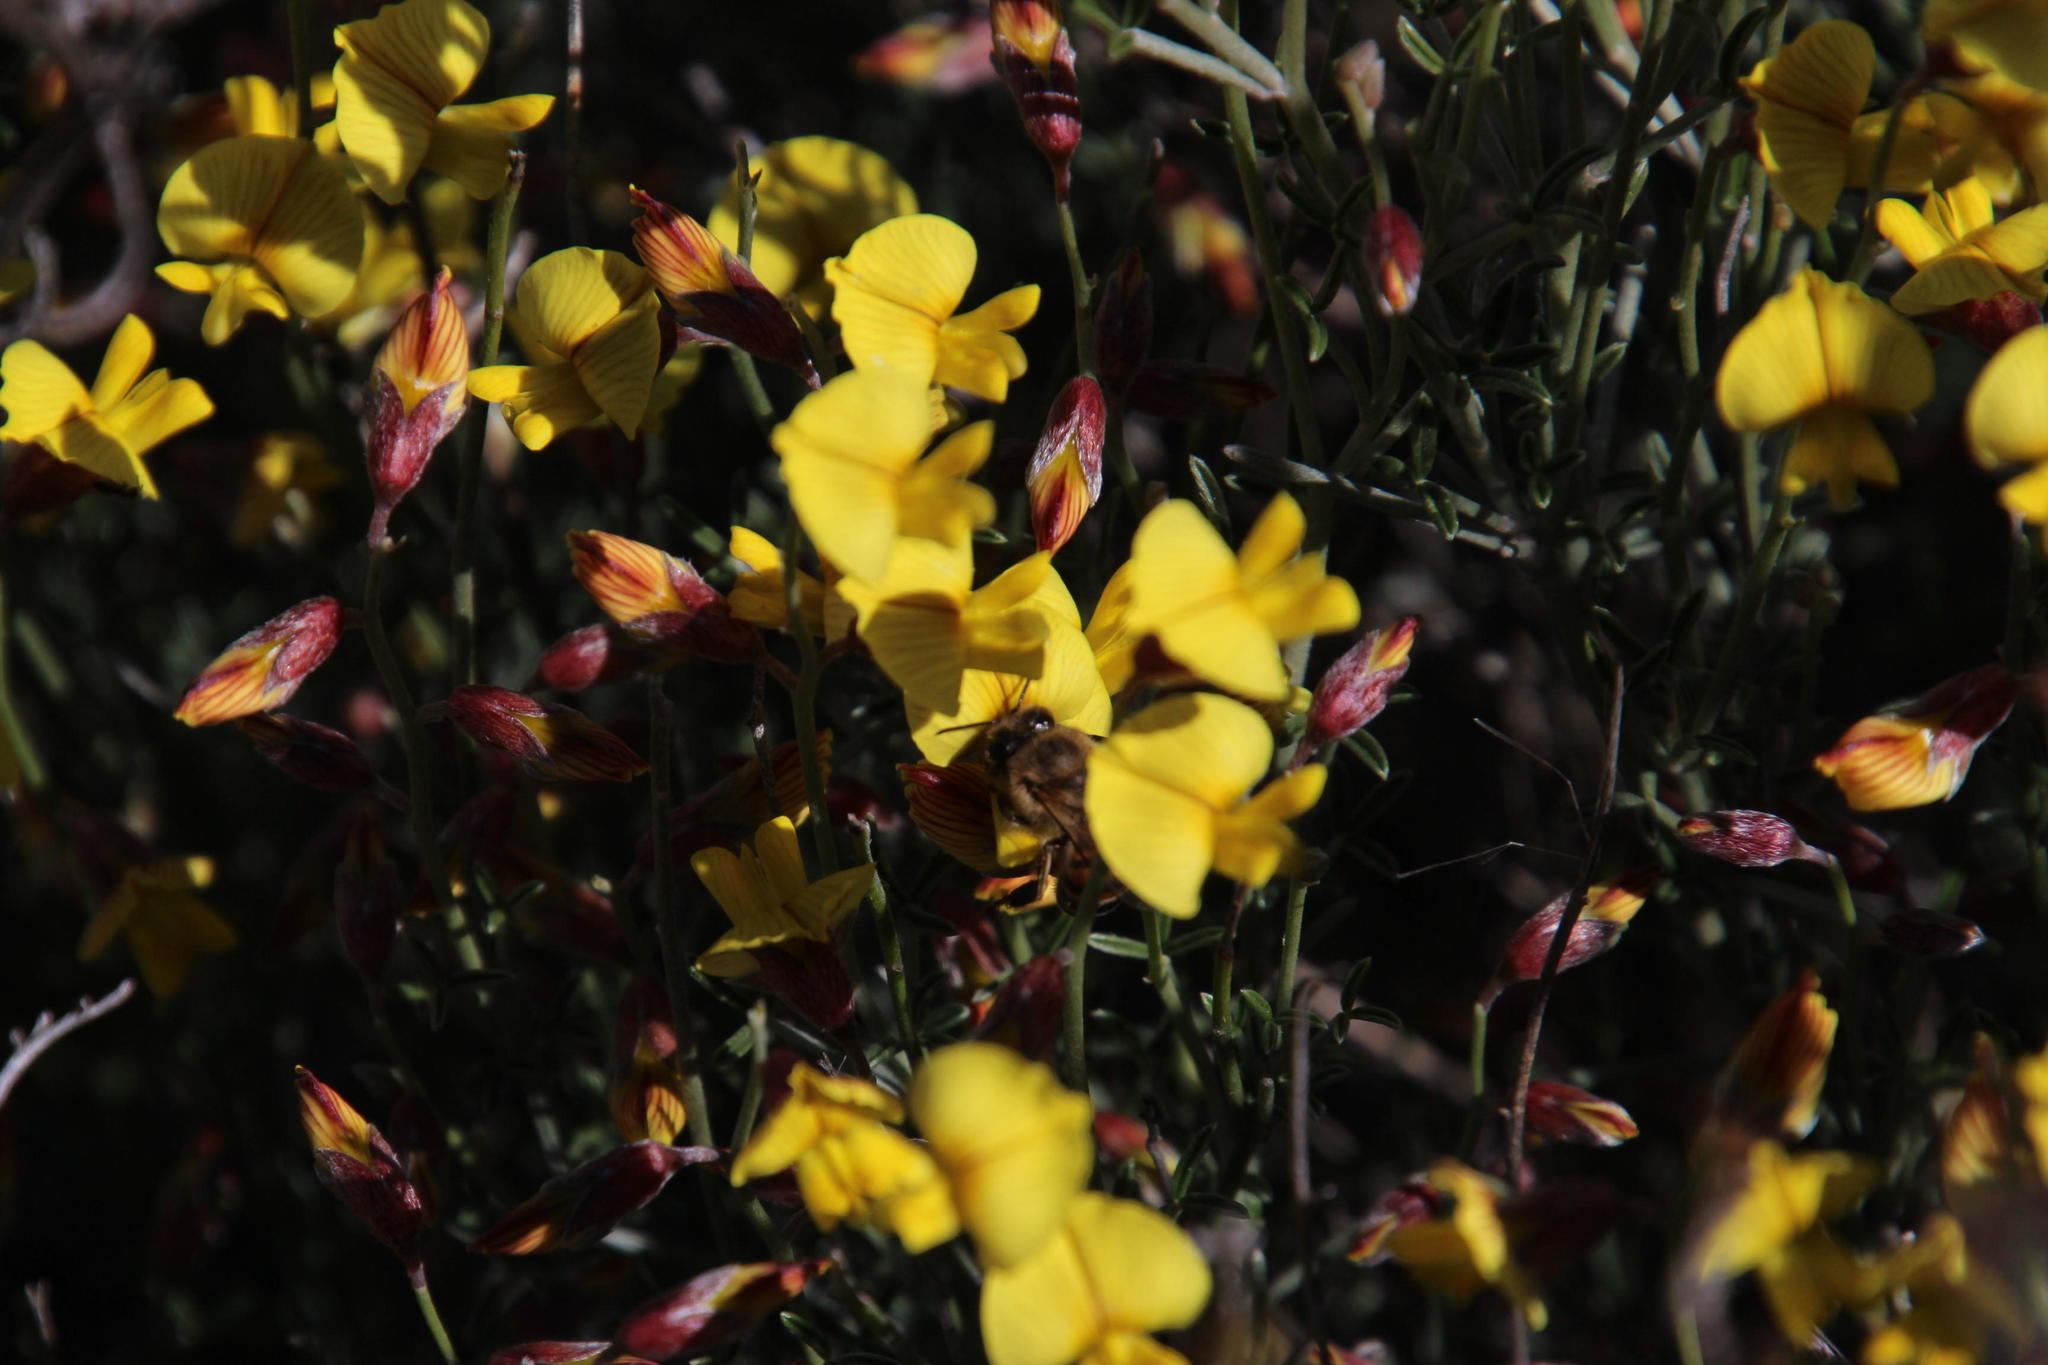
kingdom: Animalia
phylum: Arthropoda
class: Insecta
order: Hymenoptera
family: Apidae
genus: Apis
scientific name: Apis mellifera
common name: Honey bee
